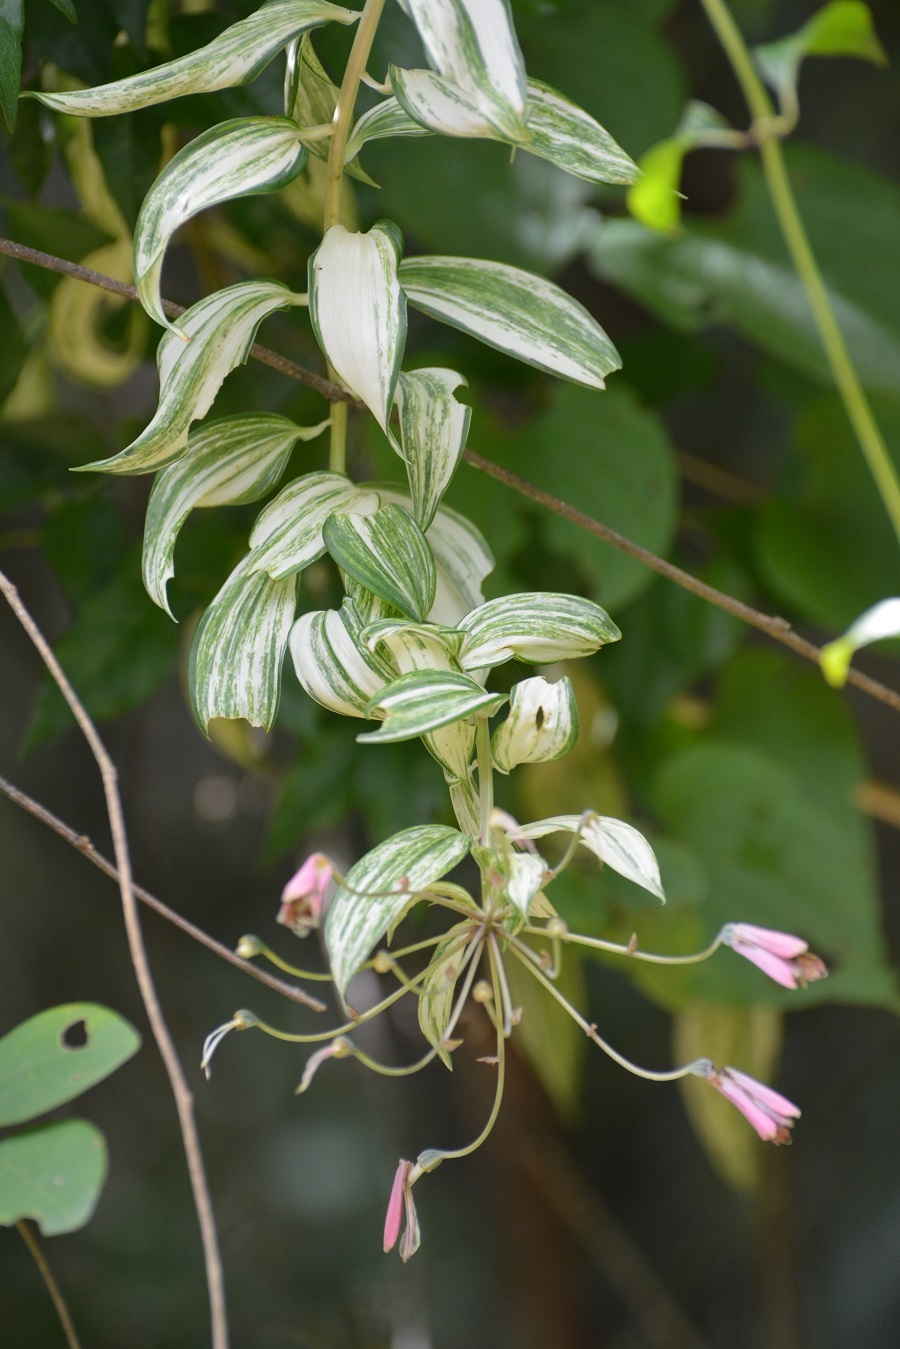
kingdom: Plantae
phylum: Tracheophyta
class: Liliopsida
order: Liliales
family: Alstroemeriaceae
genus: Bomarea
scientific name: Bomarea edulis
